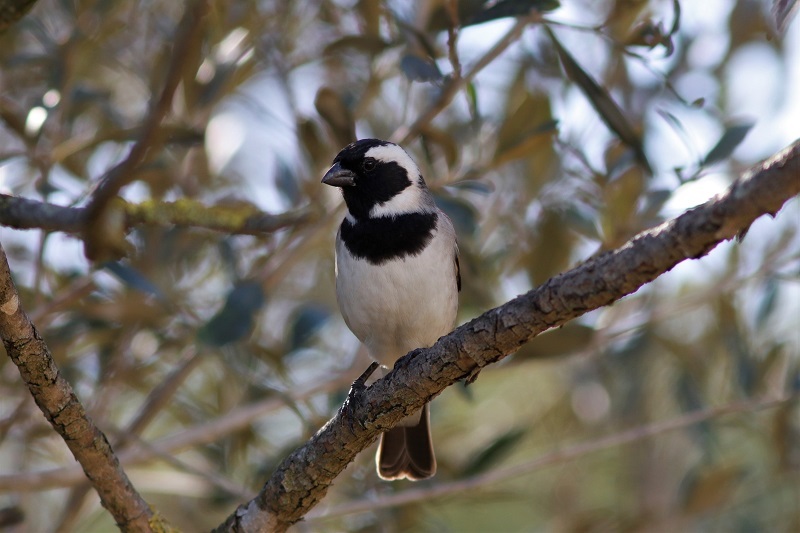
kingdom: Animalia
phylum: Chordata
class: Aves
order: Passeriformes
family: Passeridae
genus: Passer
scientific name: Passer melanurus
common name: Cape sparrow
